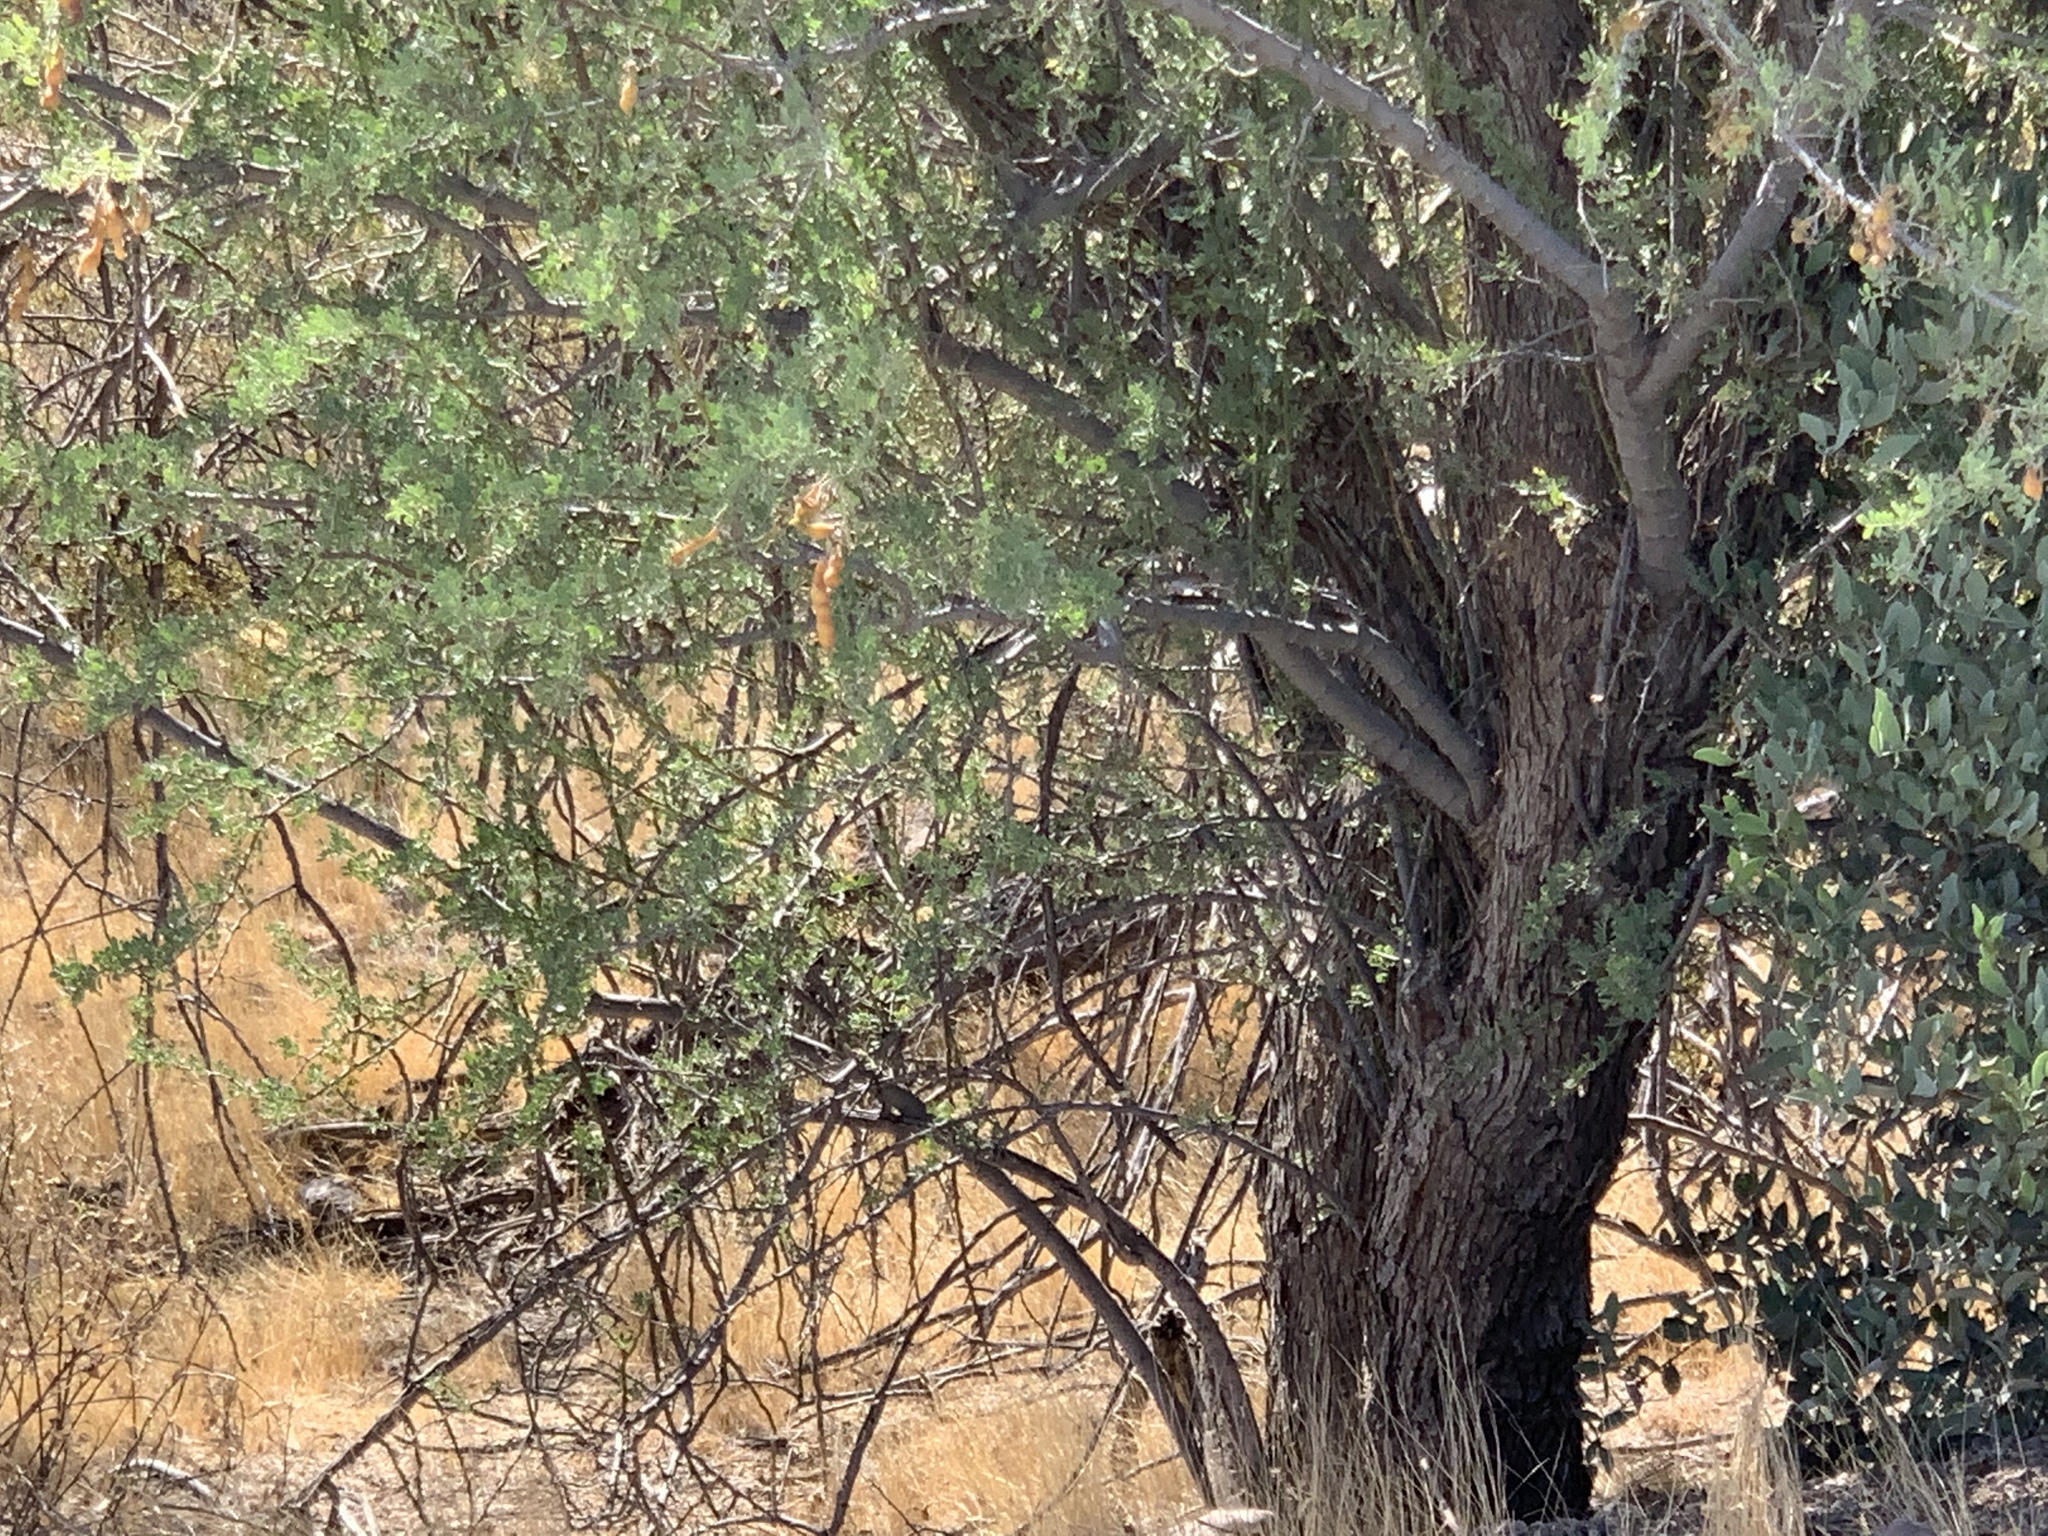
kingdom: Plantae
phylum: Tracheophyta
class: Magnoliopsida
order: Fabales
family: Fabaceae
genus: Olneya
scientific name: Olneya tesota
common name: Desert ironwood
